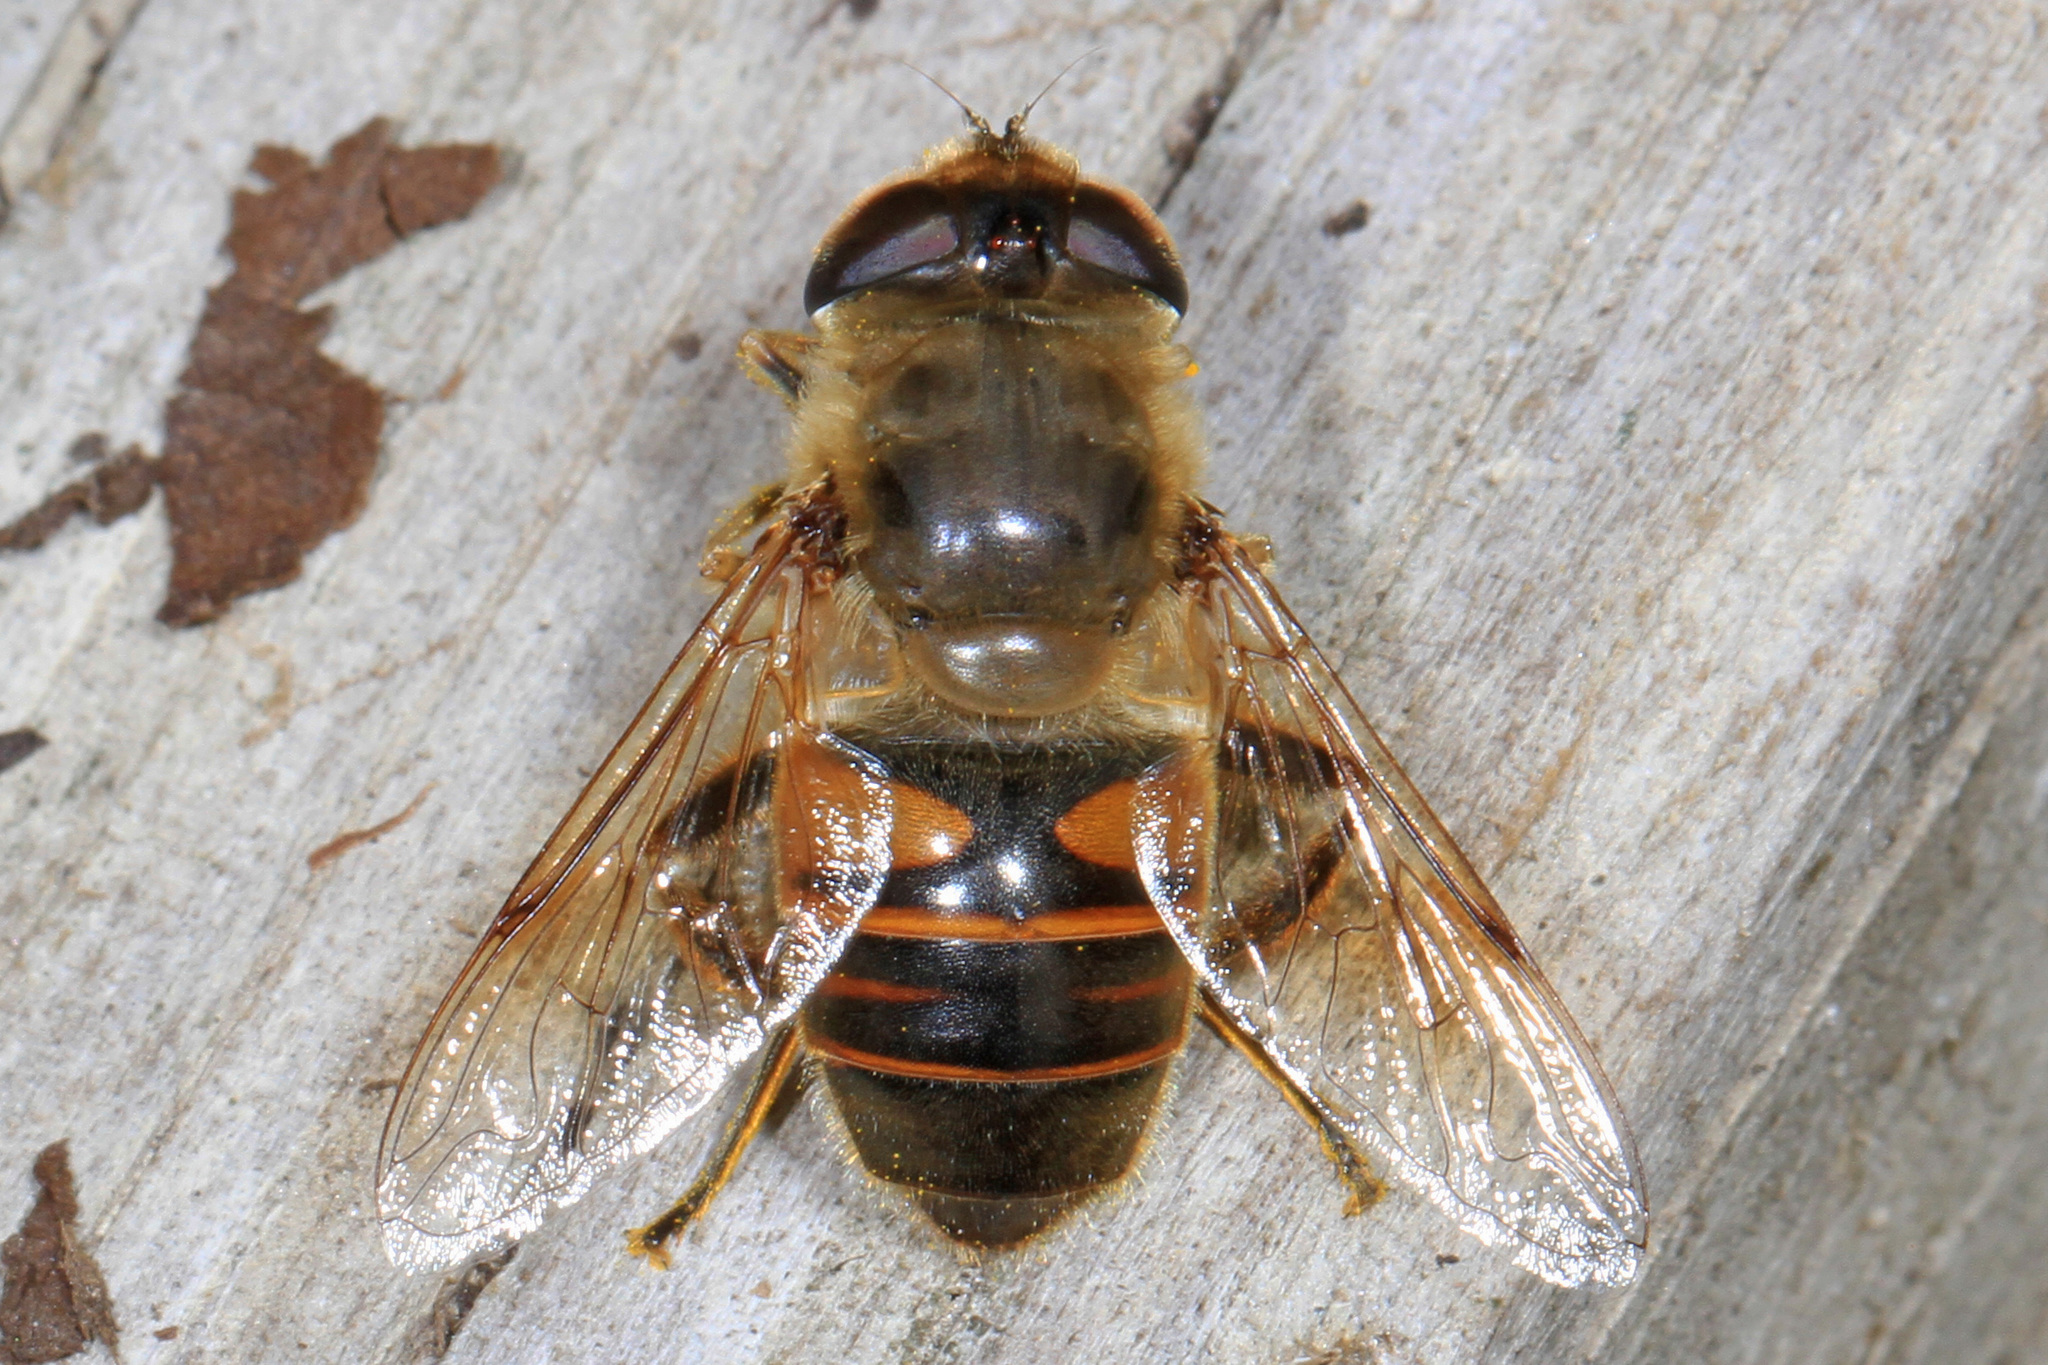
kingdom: Animalia
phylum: Arthropoda
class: Insecta
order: Diptera
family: Syrphidae
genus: Eristalis
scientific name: Eristalis tenax
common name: Drone fly
